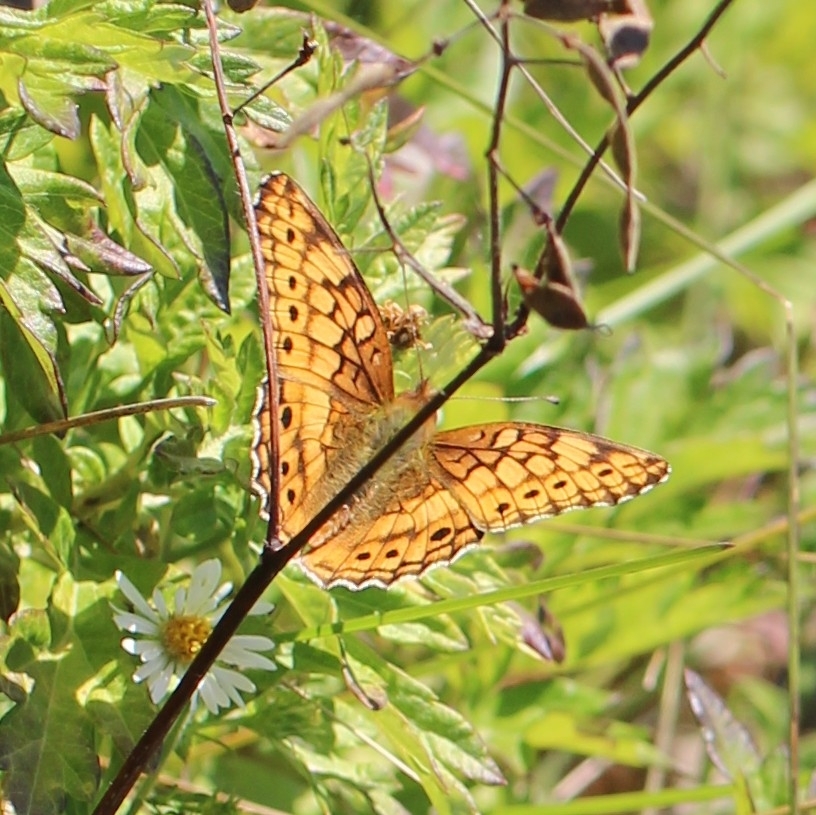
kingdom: Animalia
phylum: Arthropoda
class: Insecta
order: Lepidoptera
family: Nymphalidae
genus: Euptoieta
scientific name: Euptoieta claudia
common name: Variegated fritillary
